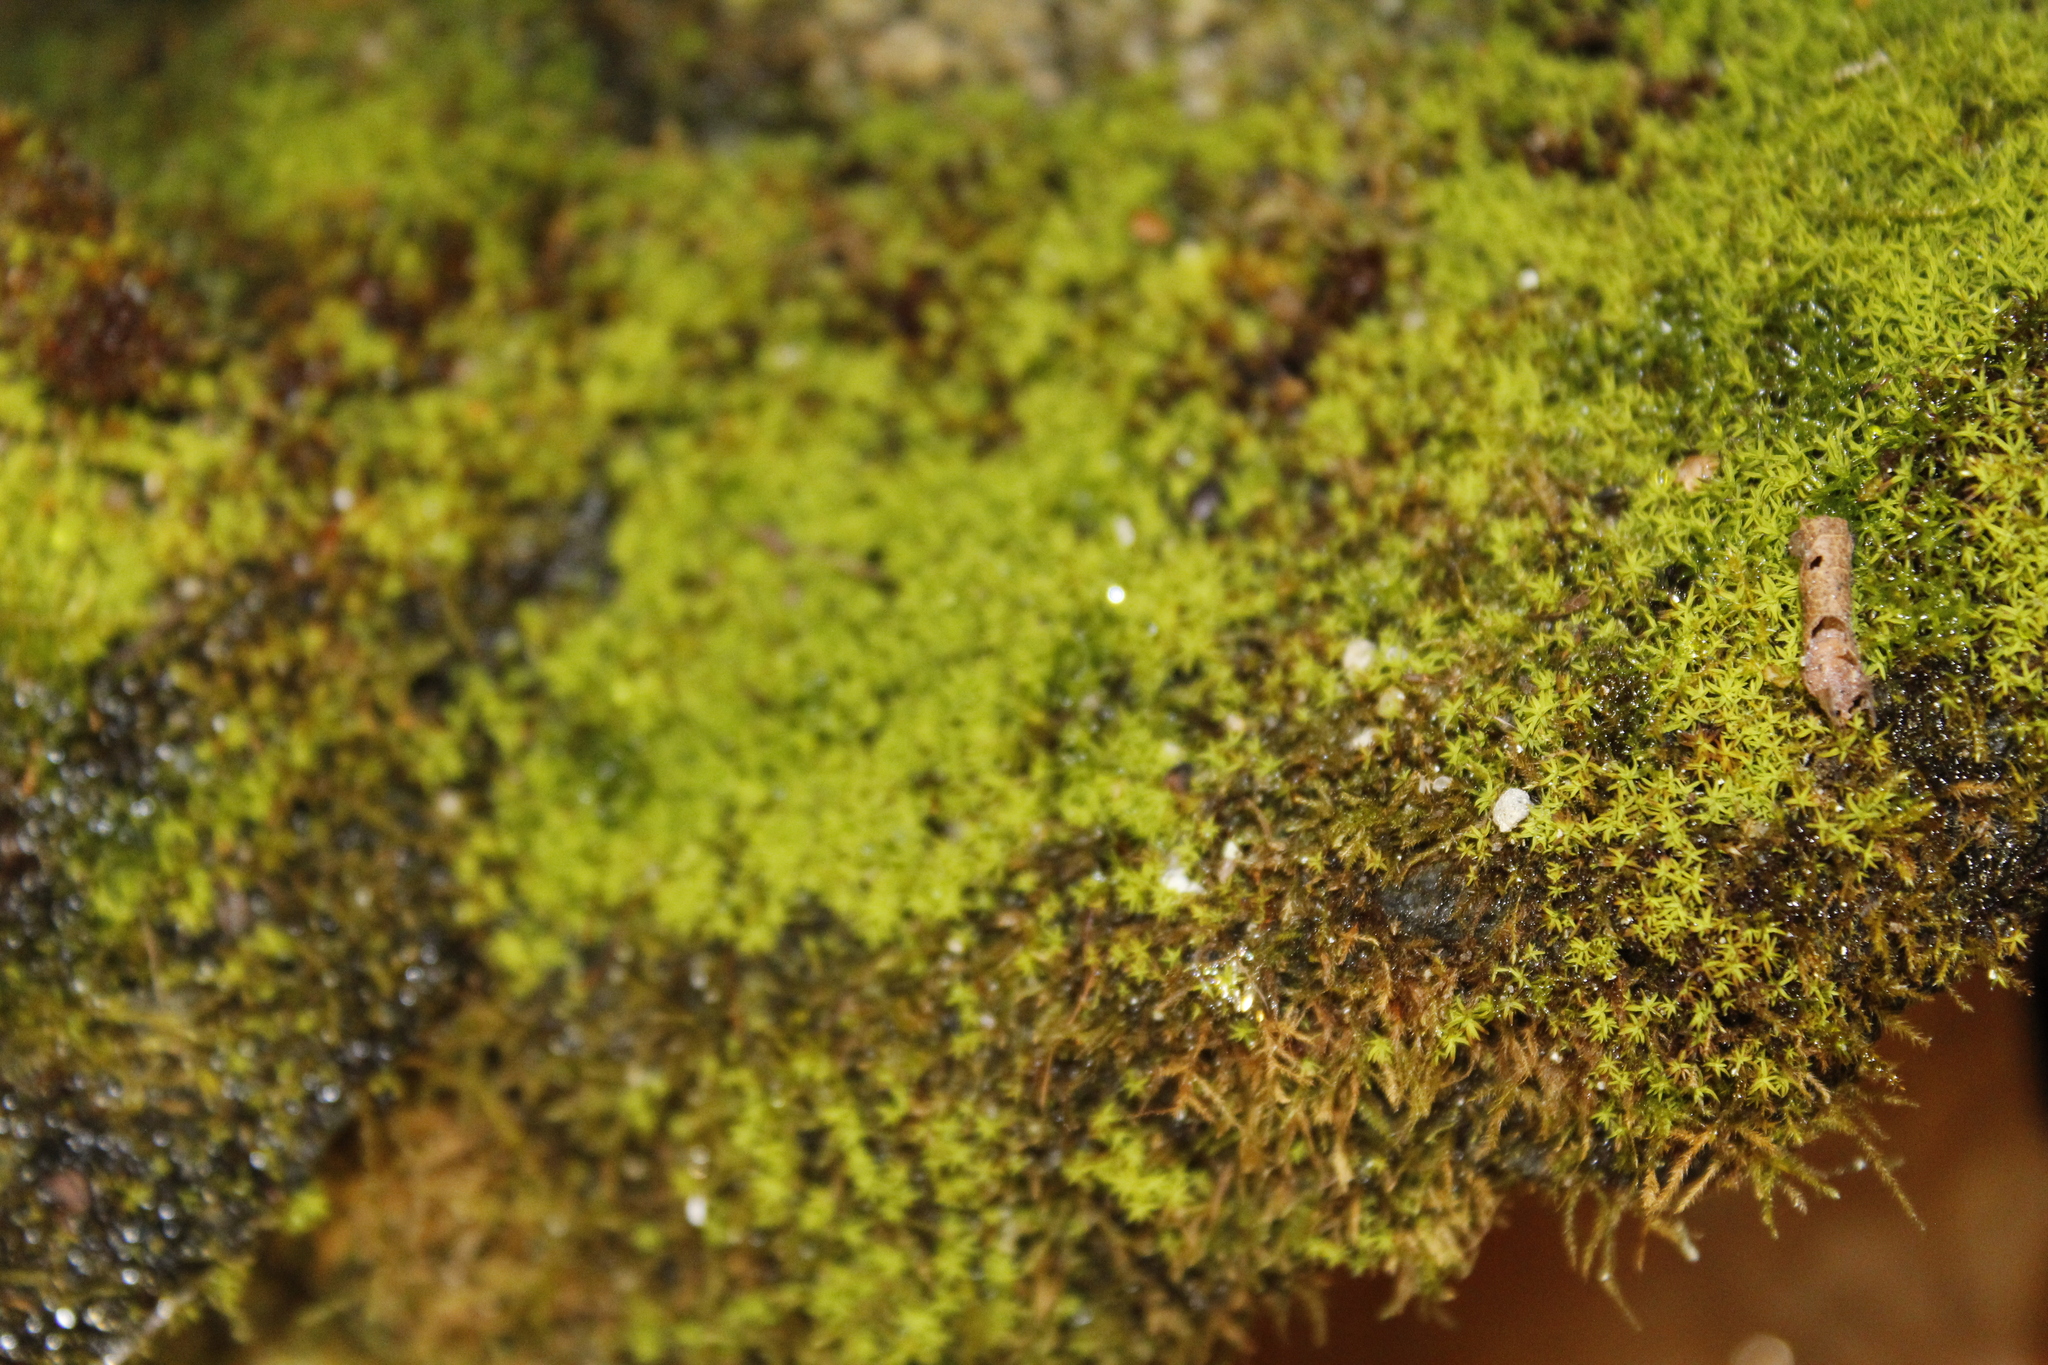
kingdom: Plantae
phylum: Bryophyta
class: Bryopsida
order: Pottiales
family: Pottiaceae
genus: Streblotrichum
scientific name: Streblotrichum convolutum
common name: Lesser bird's-claw beard-moss
